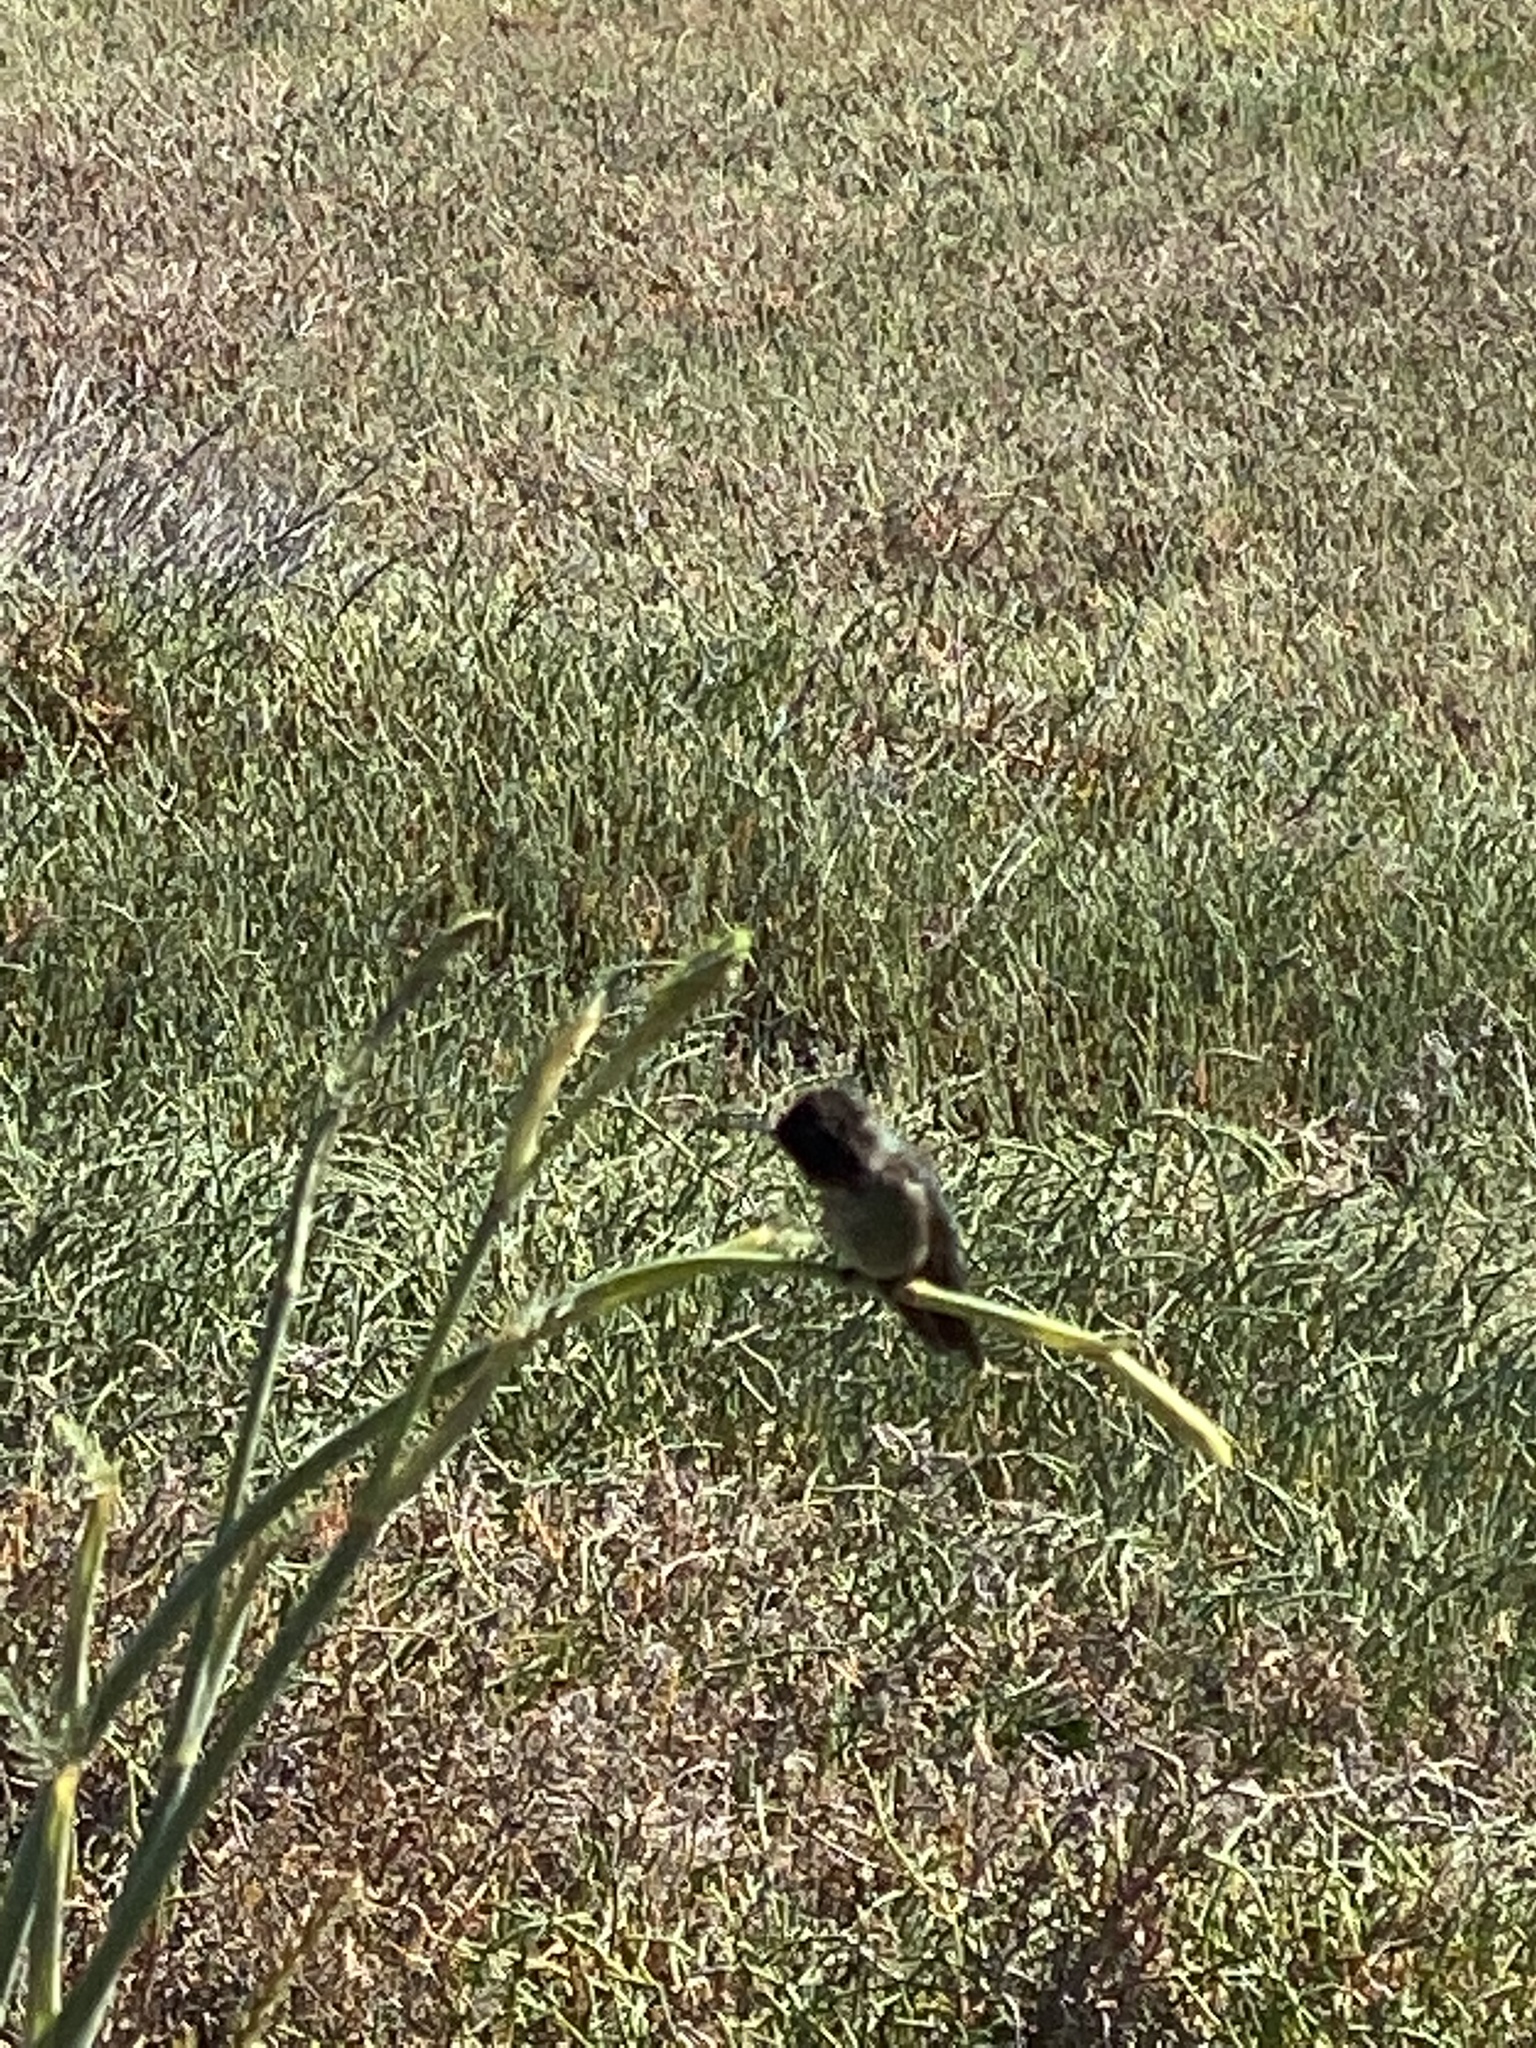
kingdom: Animalia
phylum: Chordata
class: Aves
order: Apodiformes
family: Trochilidae
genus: Calypte
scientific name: Calypte anna
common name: Anna's hummingbird
